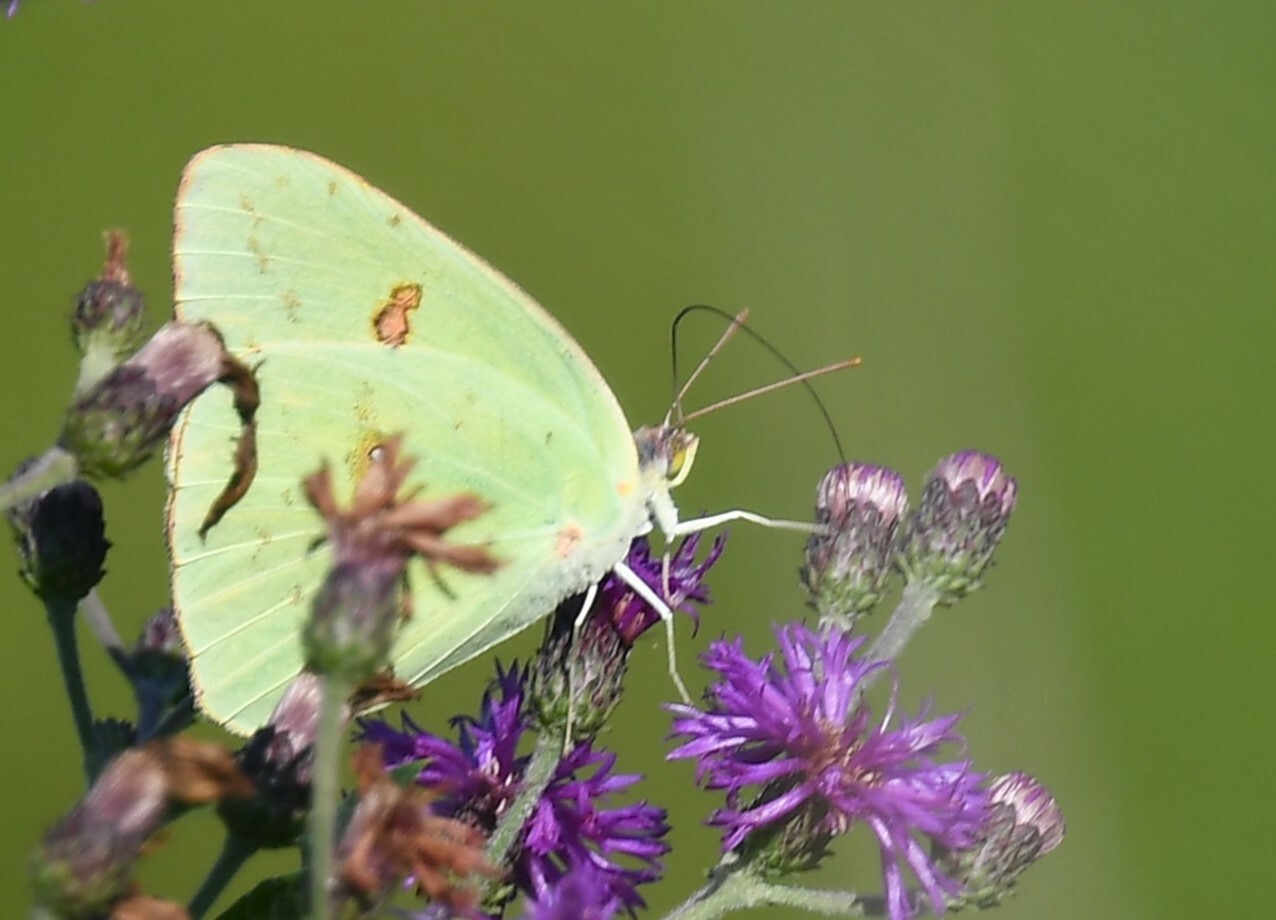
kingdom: Animalia
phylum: Arthropoda
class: Insecta
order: Lepidoptera
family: Pieridae
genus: Phoebis
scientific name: Phoebis sennae
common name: Cloudless sulphur
